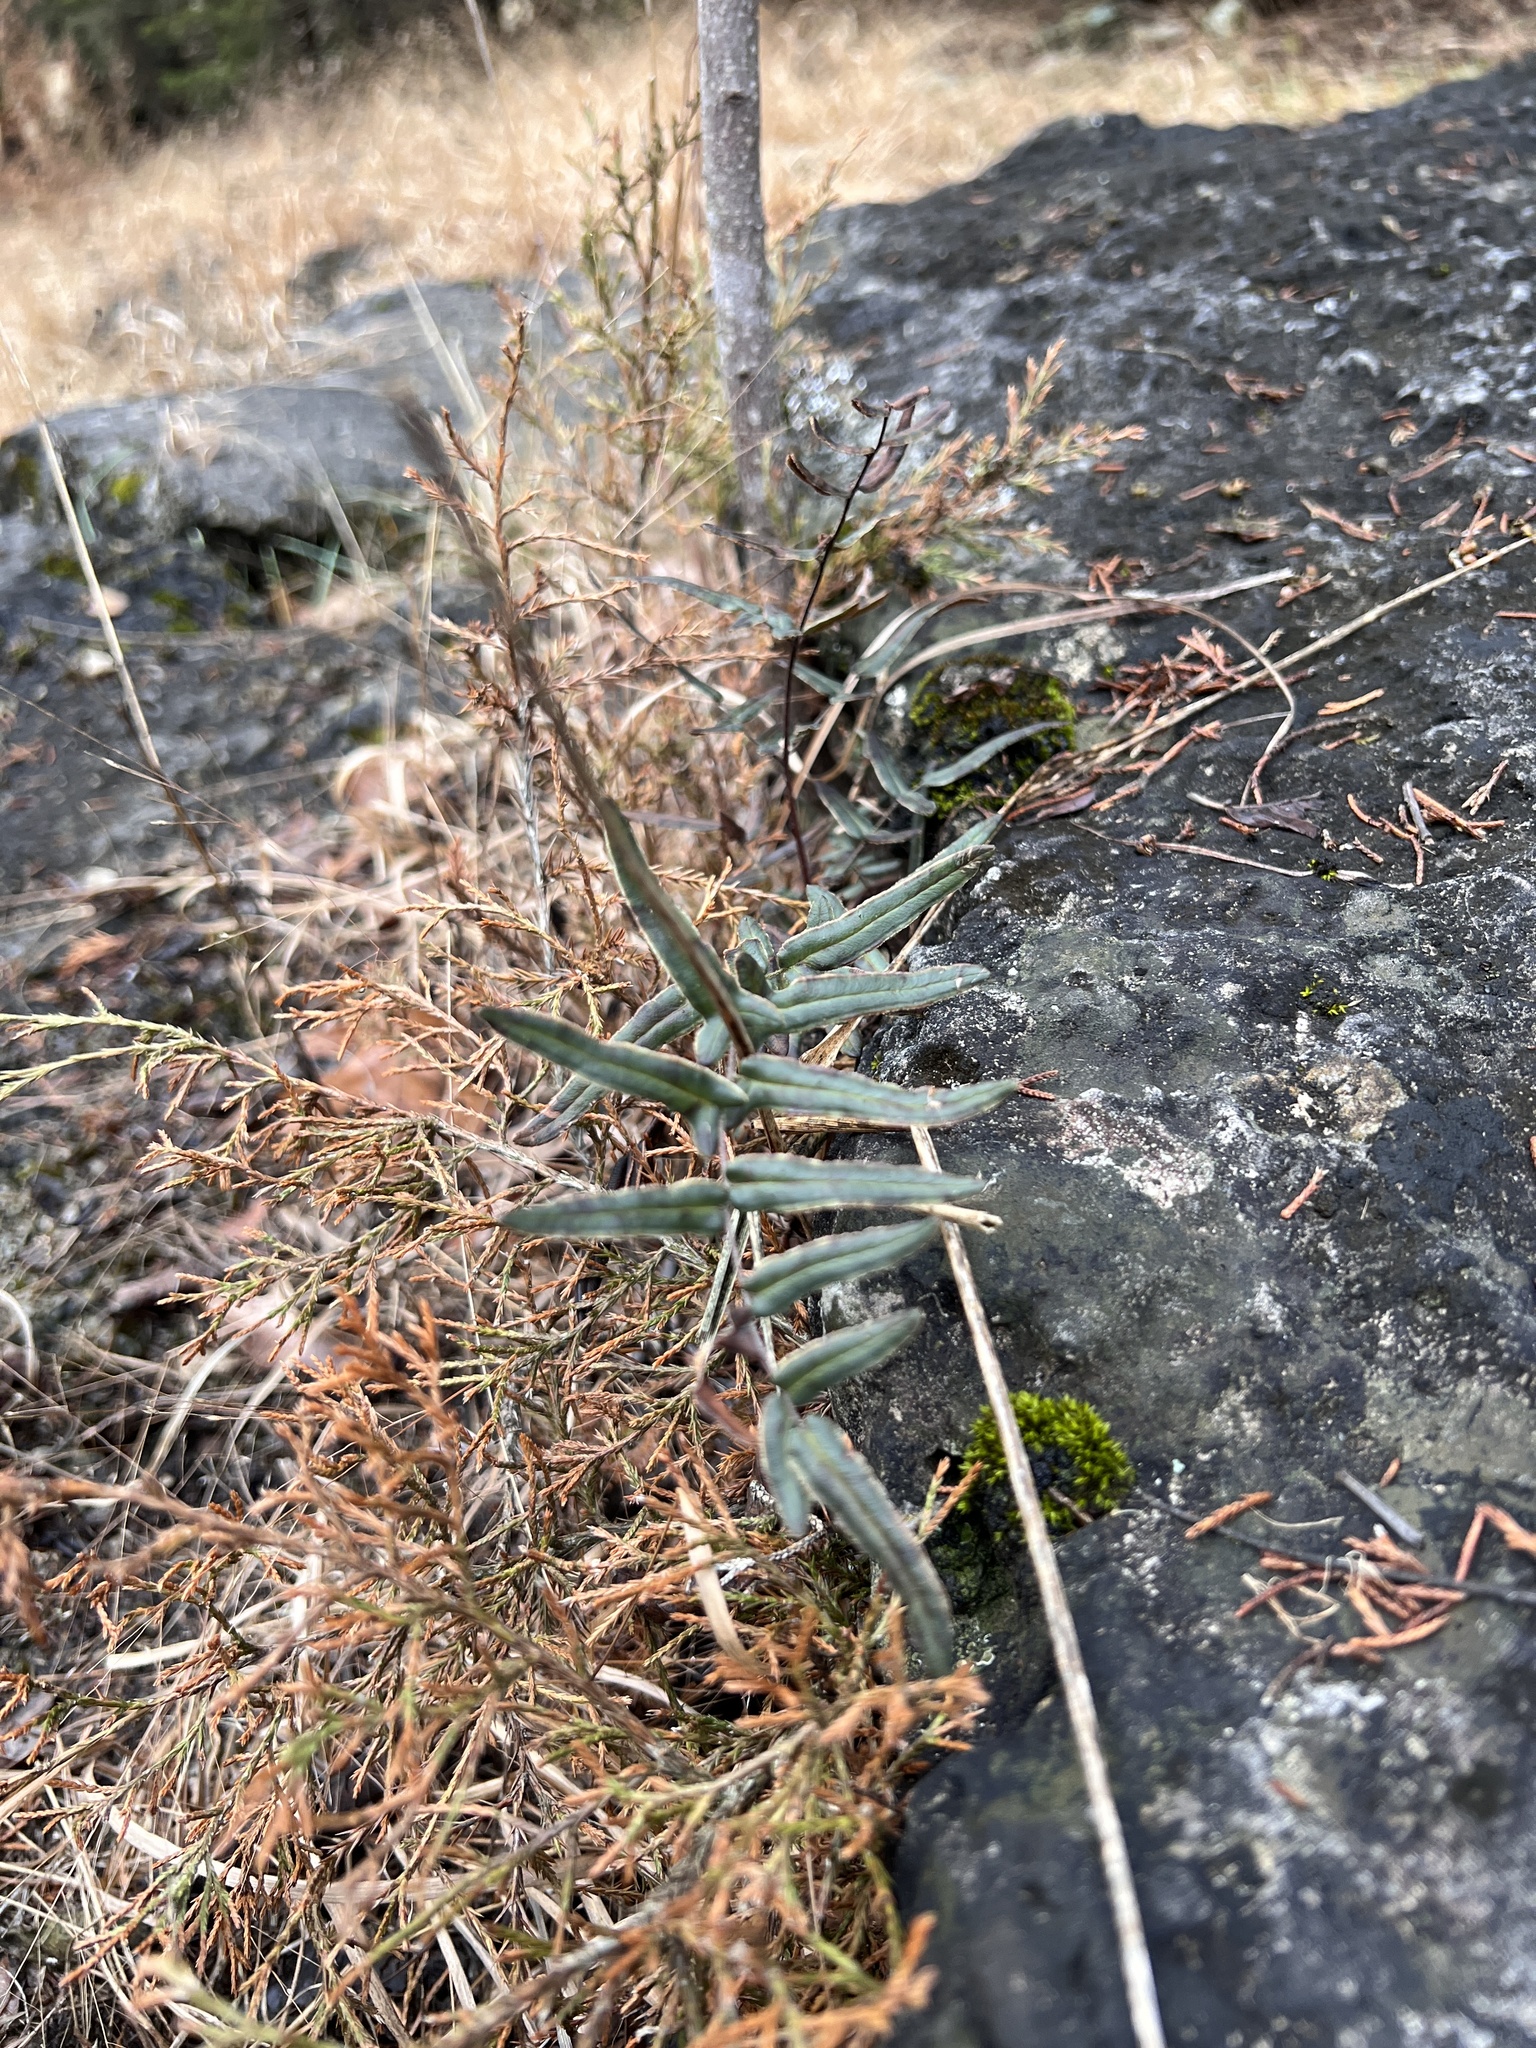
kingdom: Plantae
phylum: Tracheophyta
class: Polypodiopsida
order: Polypodiales
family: Pteridaceae
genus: Pellaea
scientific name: Pellaea atropurpurea
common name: Hairy cliffbrake
